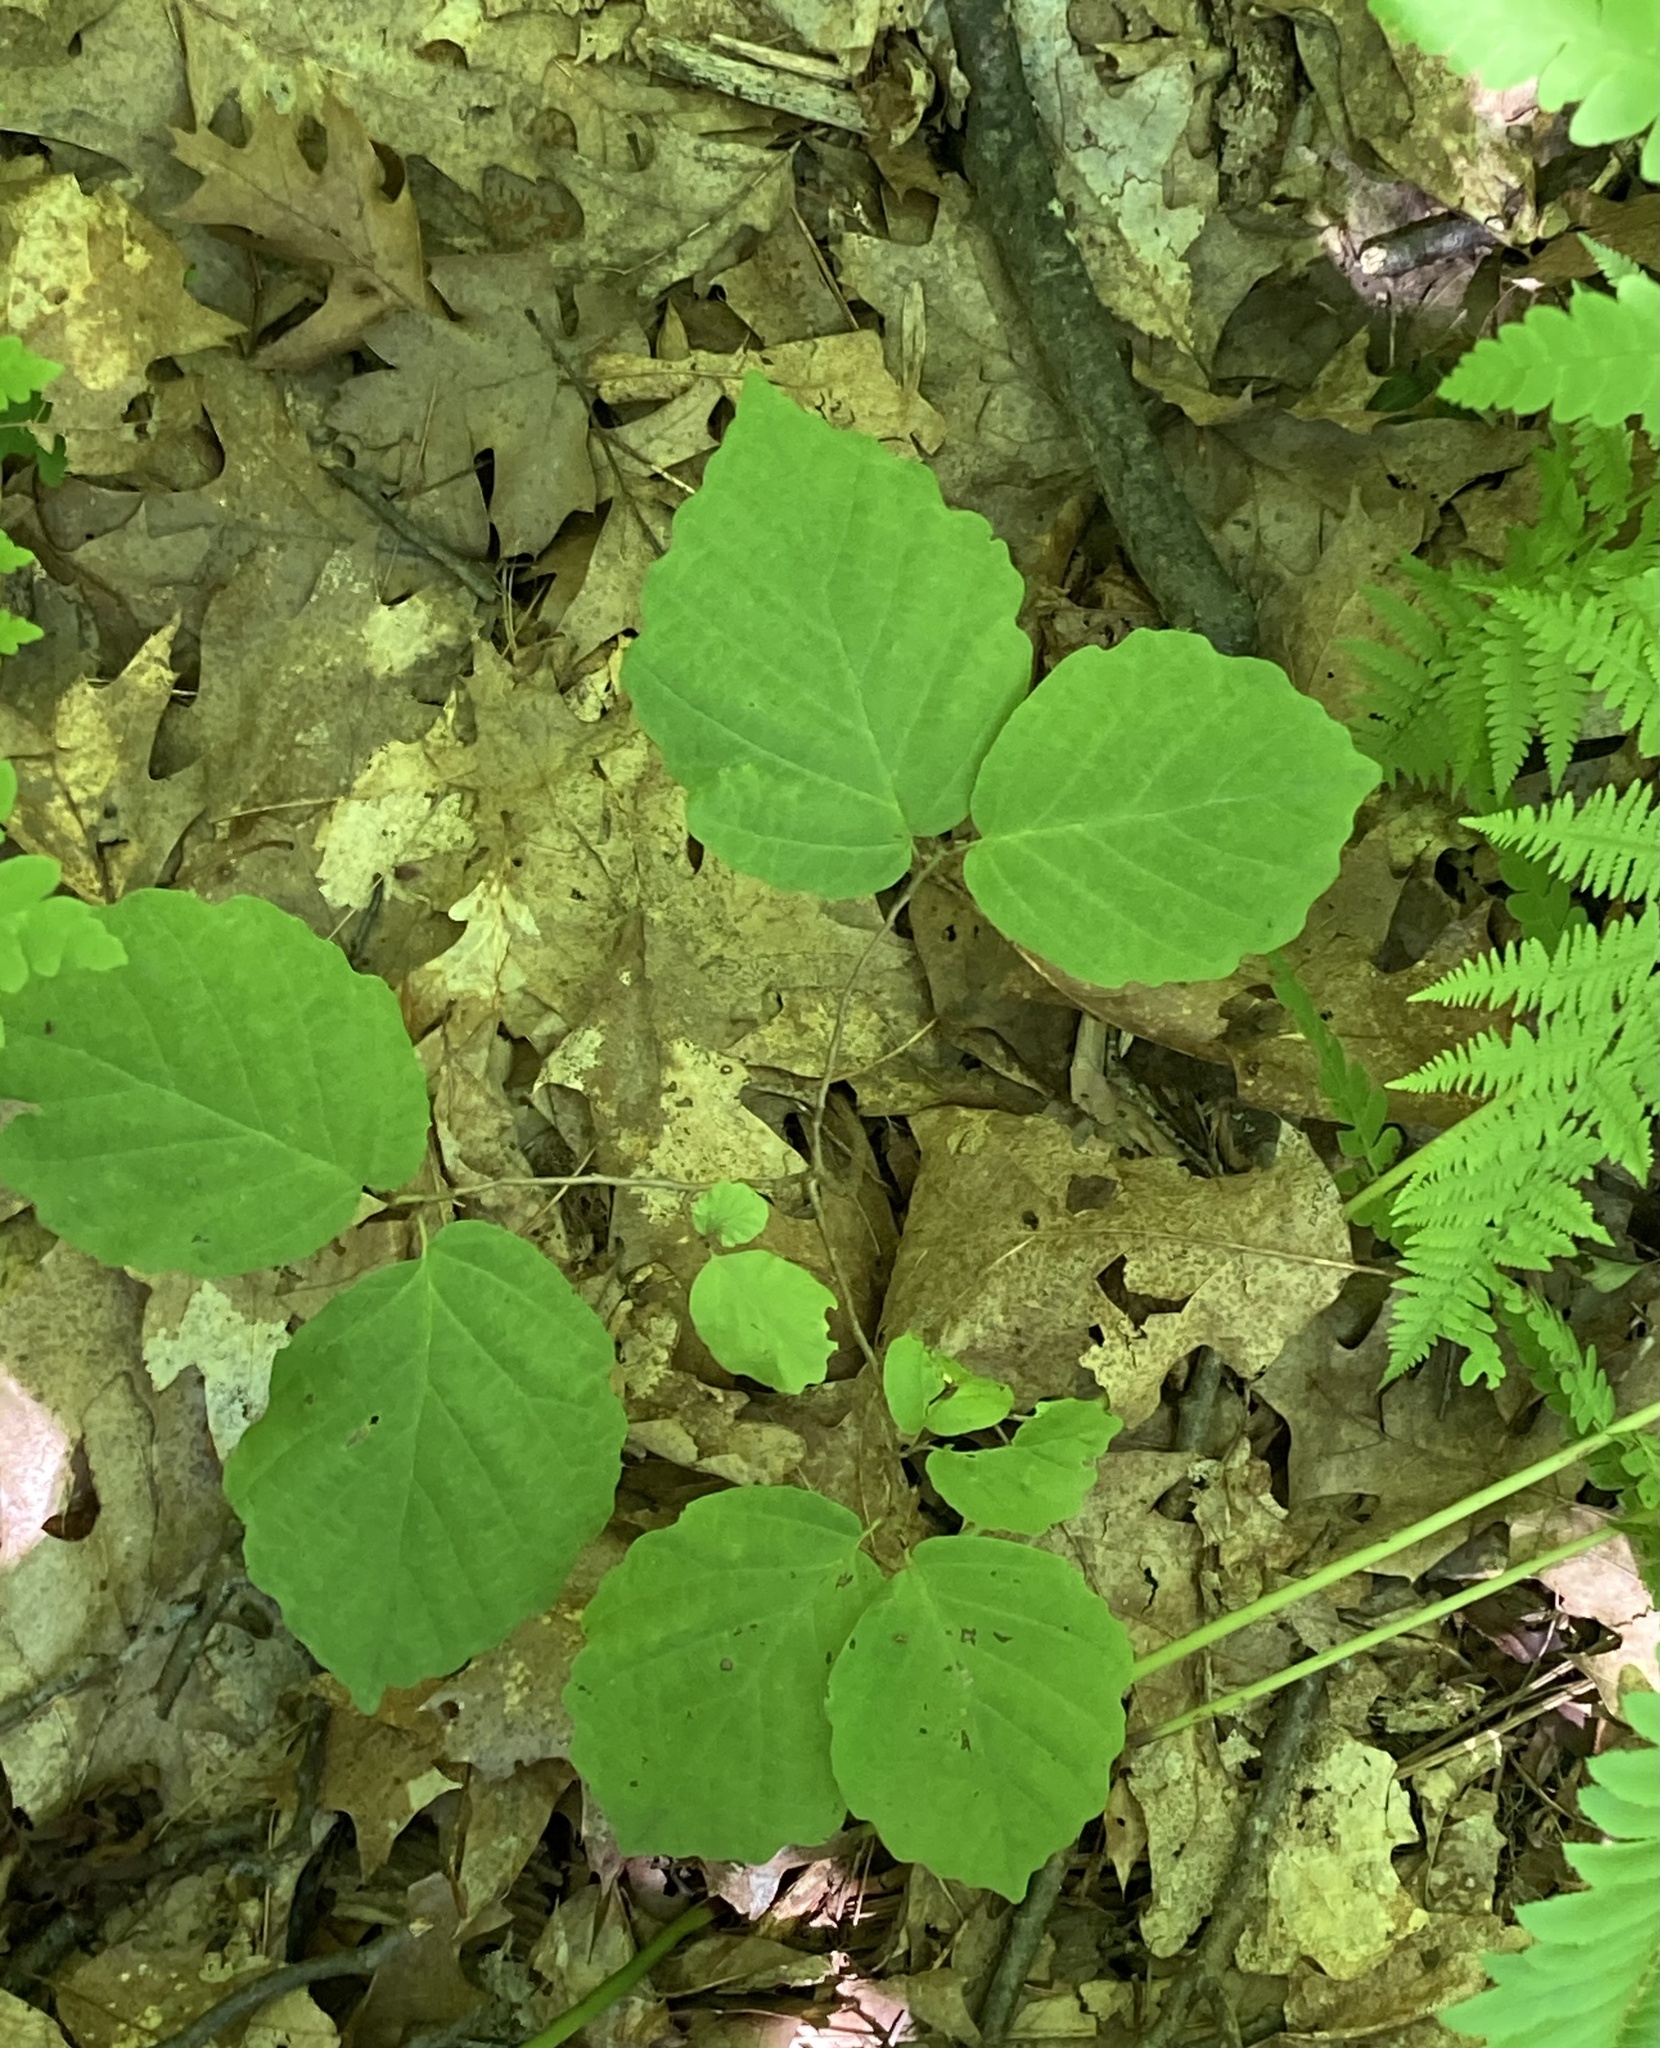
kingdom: Plantae
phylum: Tracheophyta
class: Magnoliopsida
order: Saxifragales
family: Hamamelidaceae
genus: Hamamelis
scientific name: Hamamelis virginiana
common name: Witch-hazel
